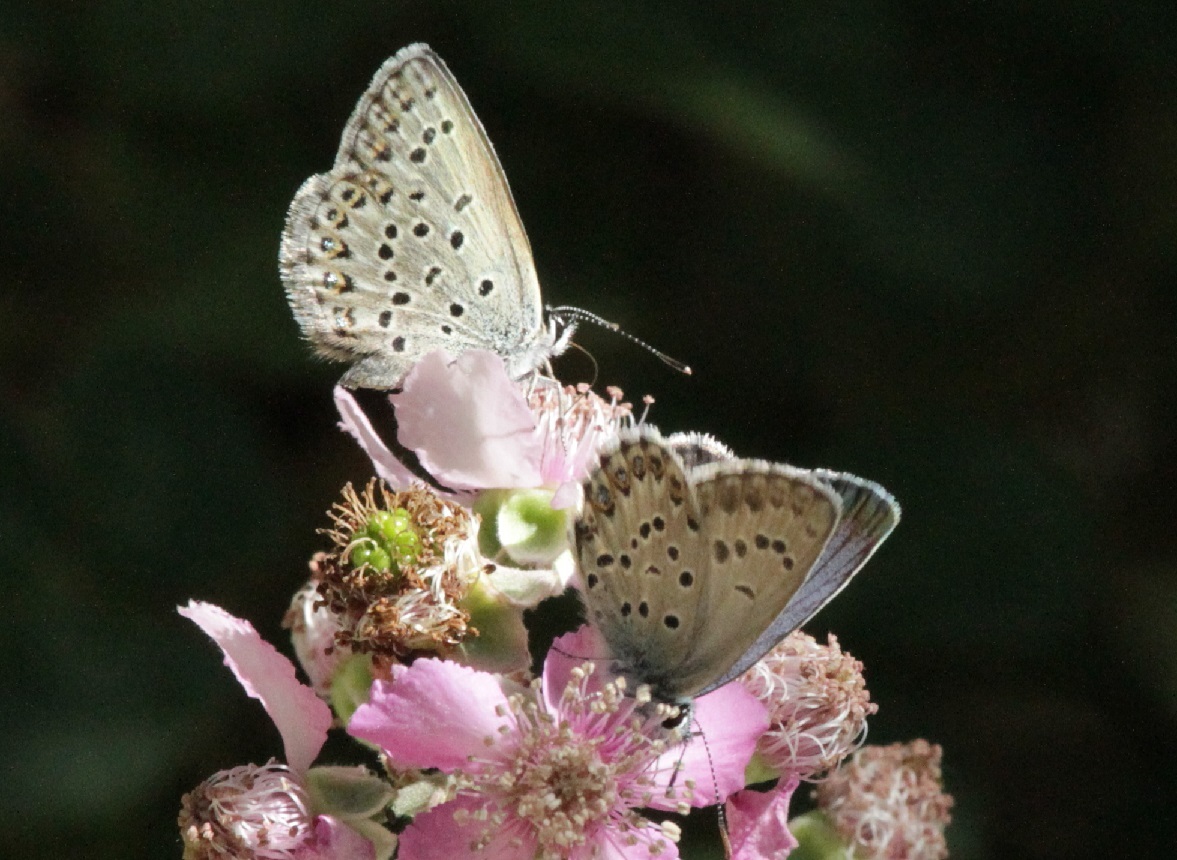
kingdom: Animalia
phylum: Arthropoda
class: Insecta
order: Lepidoptera
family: Lycaenidae
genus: Lycaeides
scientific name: Lycaeides idas
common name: Northern blue
